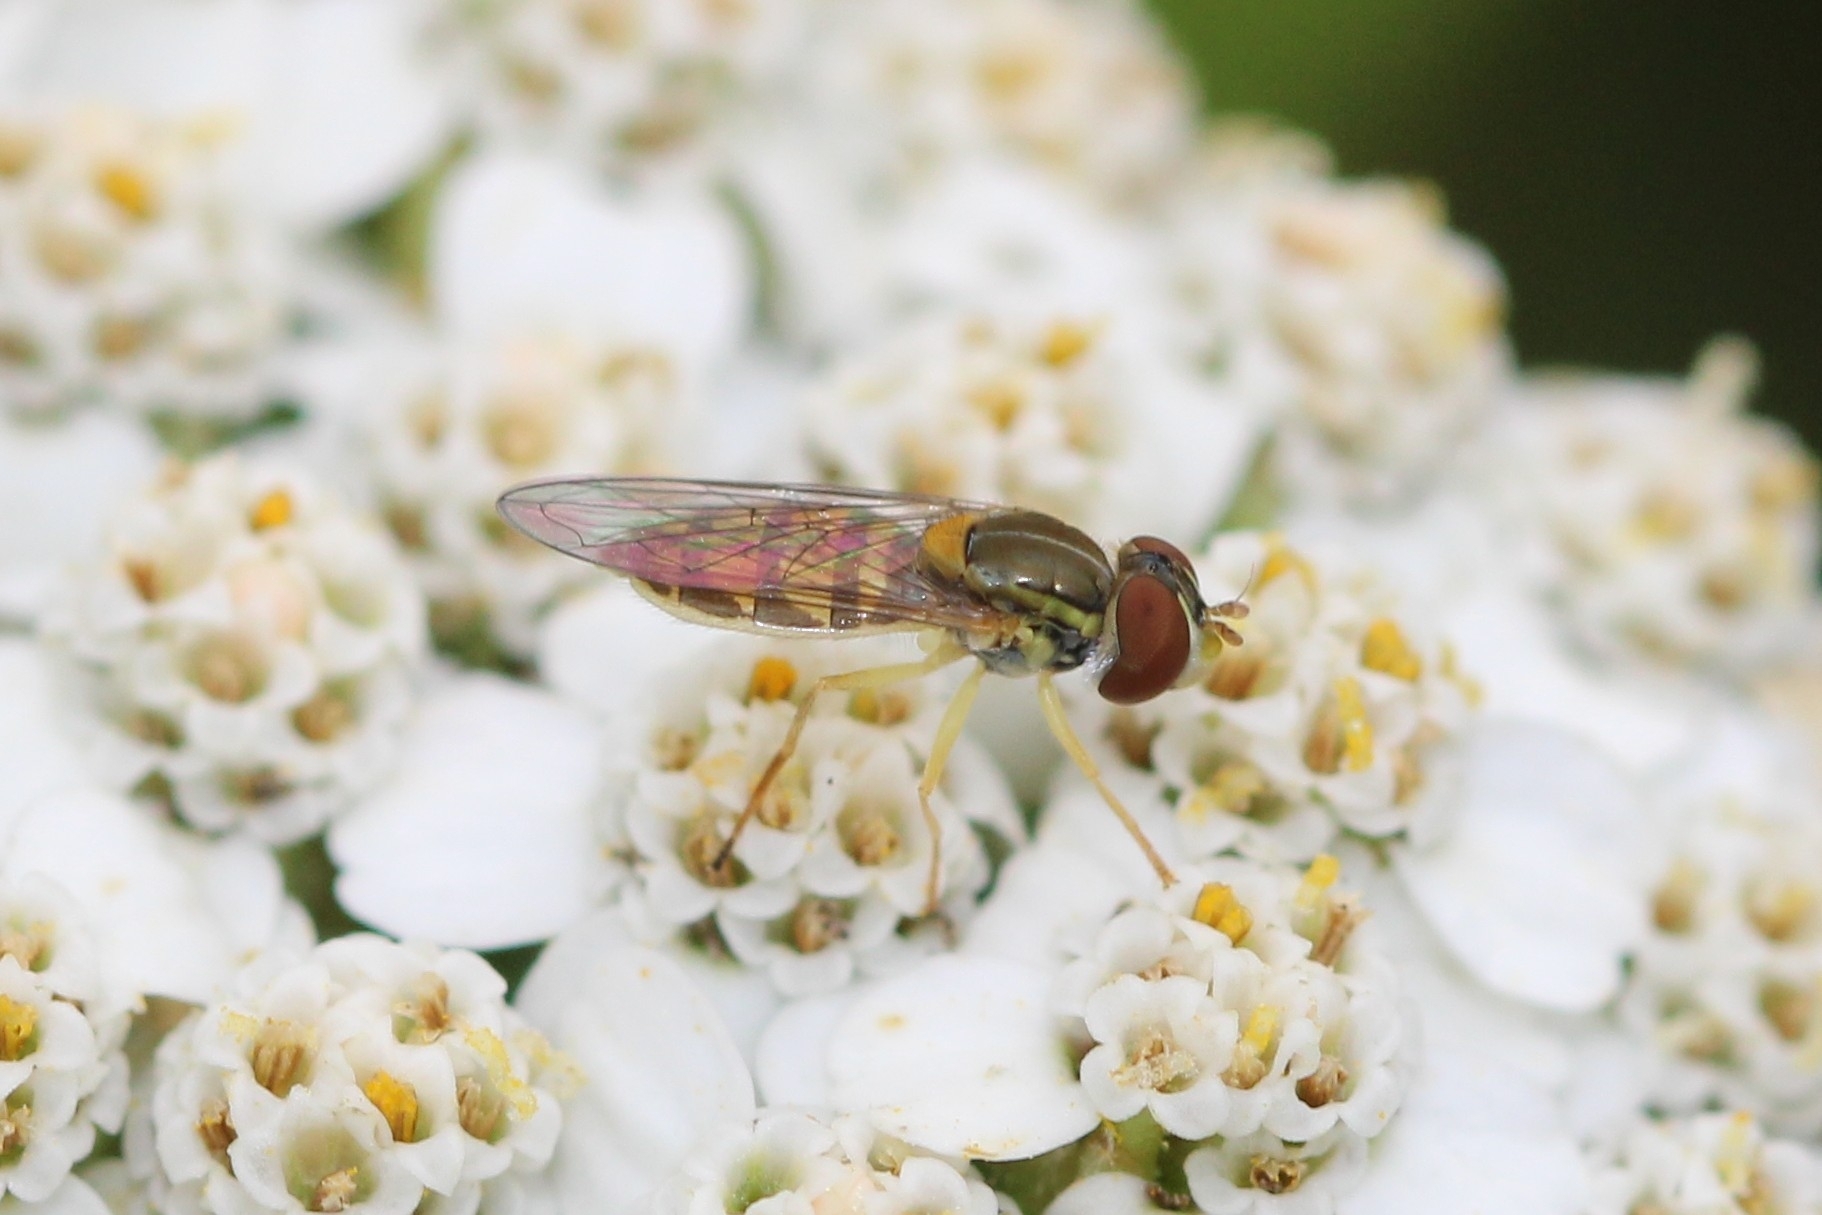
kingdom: Animalia
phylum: Arthropoda
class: Insecta
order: Diptera
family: Syrphidae
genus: Toxomerus
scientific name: Toxomerus marginatus
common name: Syrphid fly
